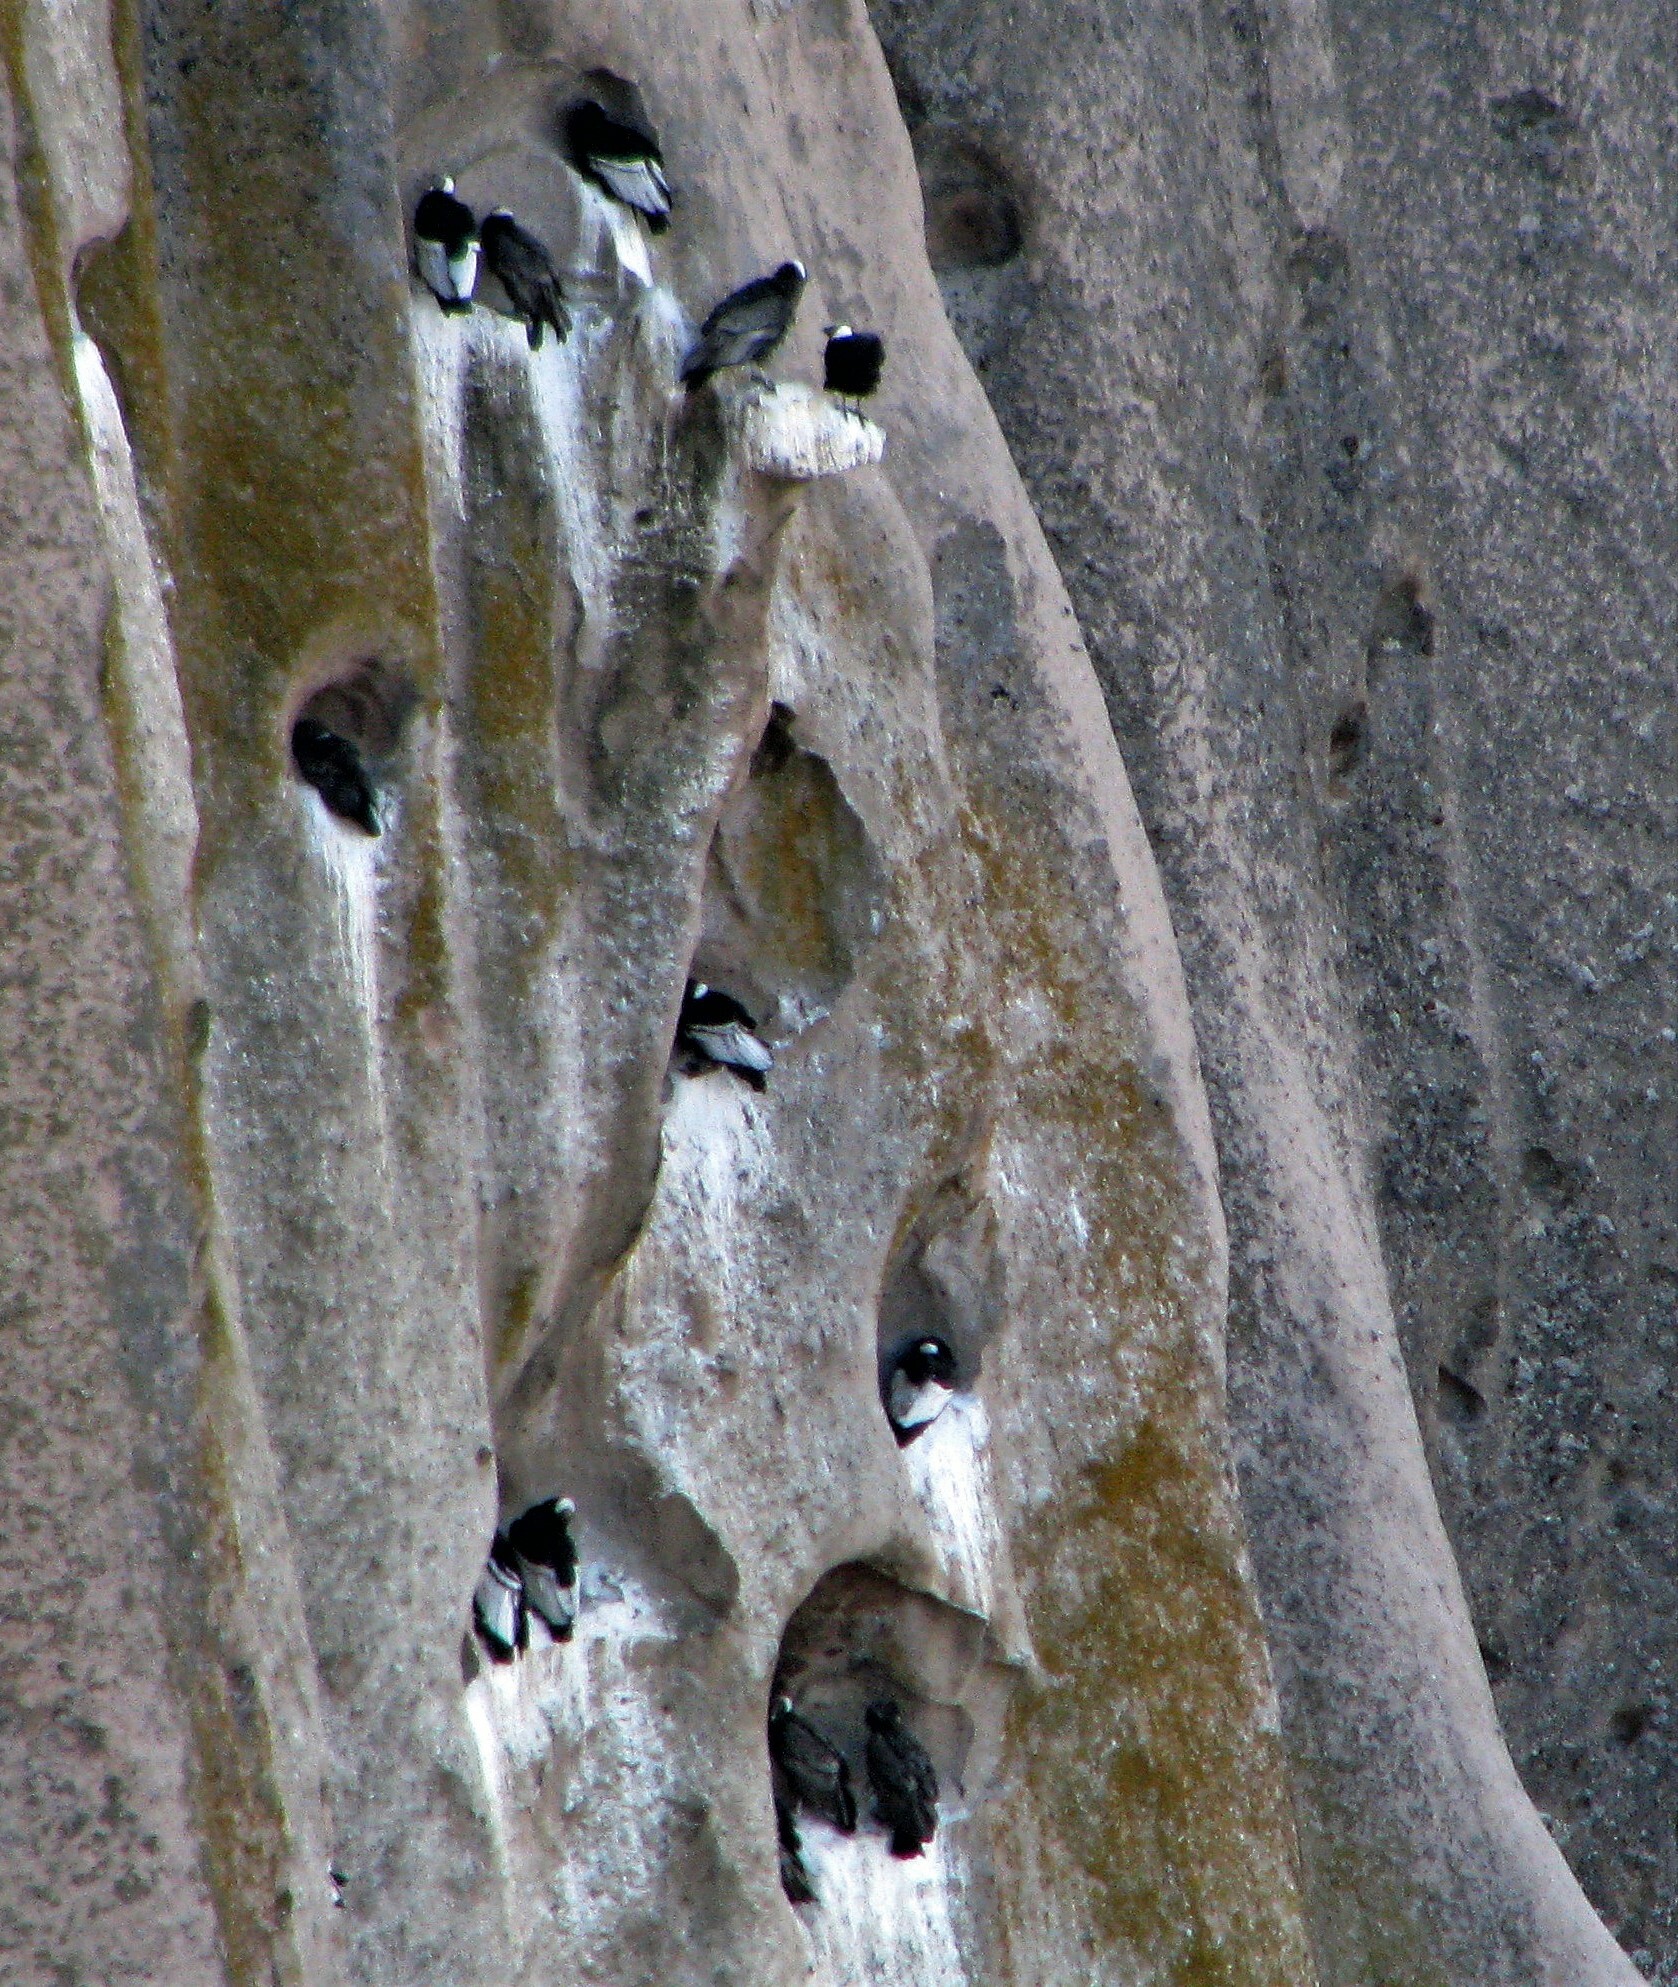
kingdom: Animalia
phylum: Chordata
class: Aves
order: Accipitriformes
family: Cathartidae
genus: Vultur
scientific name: Vultur gryphus
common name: Andean condor
